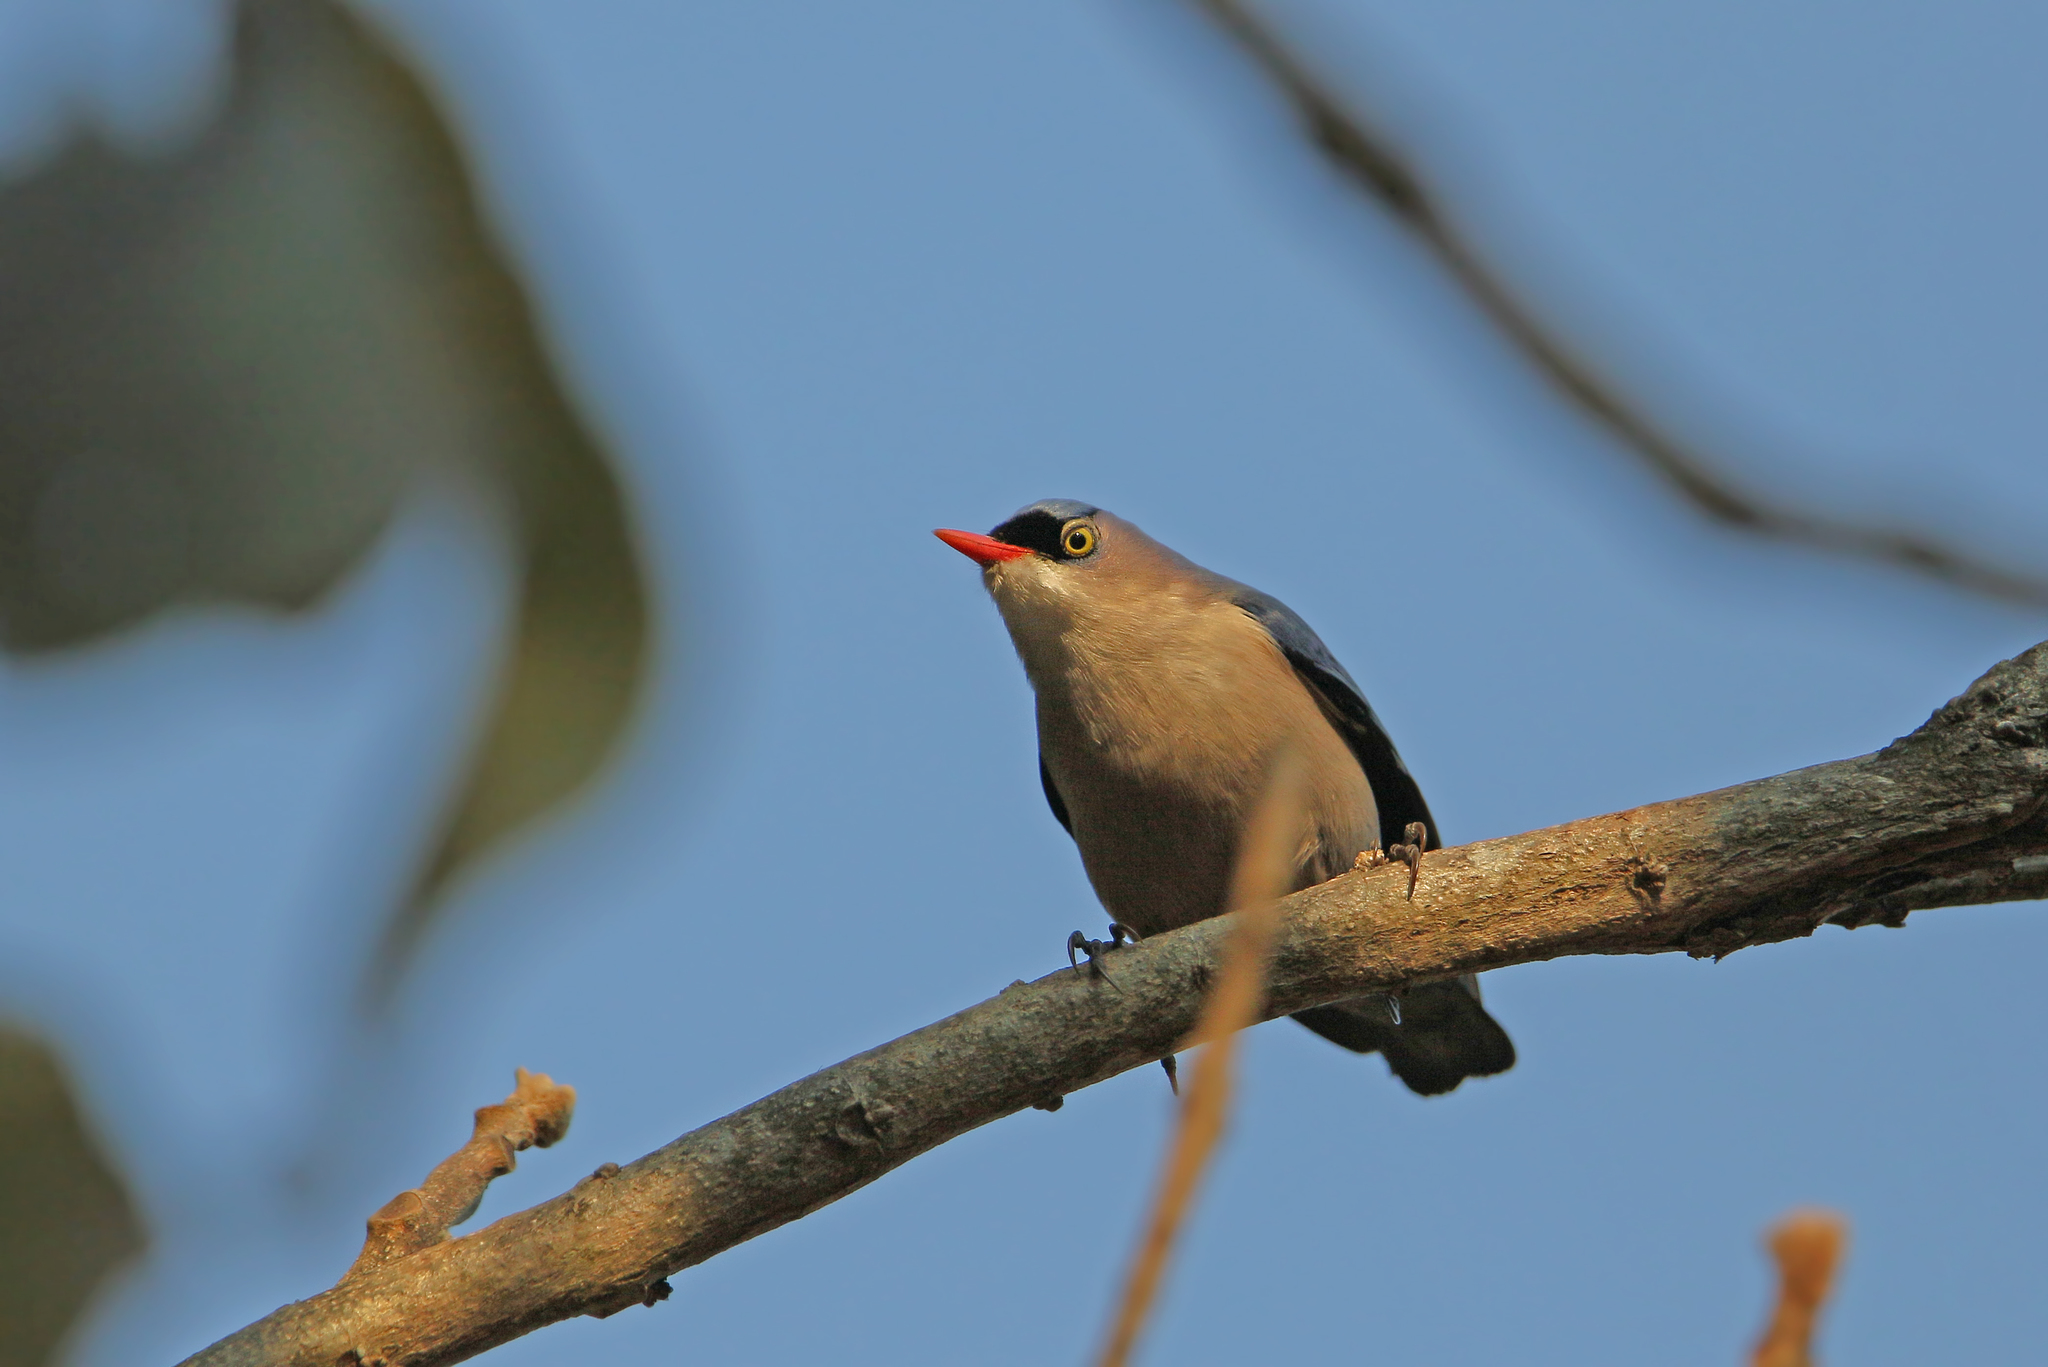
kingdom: Animalia
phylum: Chordata
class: Aves
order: Passeriformes
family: Sittidae
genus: Sitta
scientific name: Sitta frontalis
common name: Velvet-fronted nuthatch
